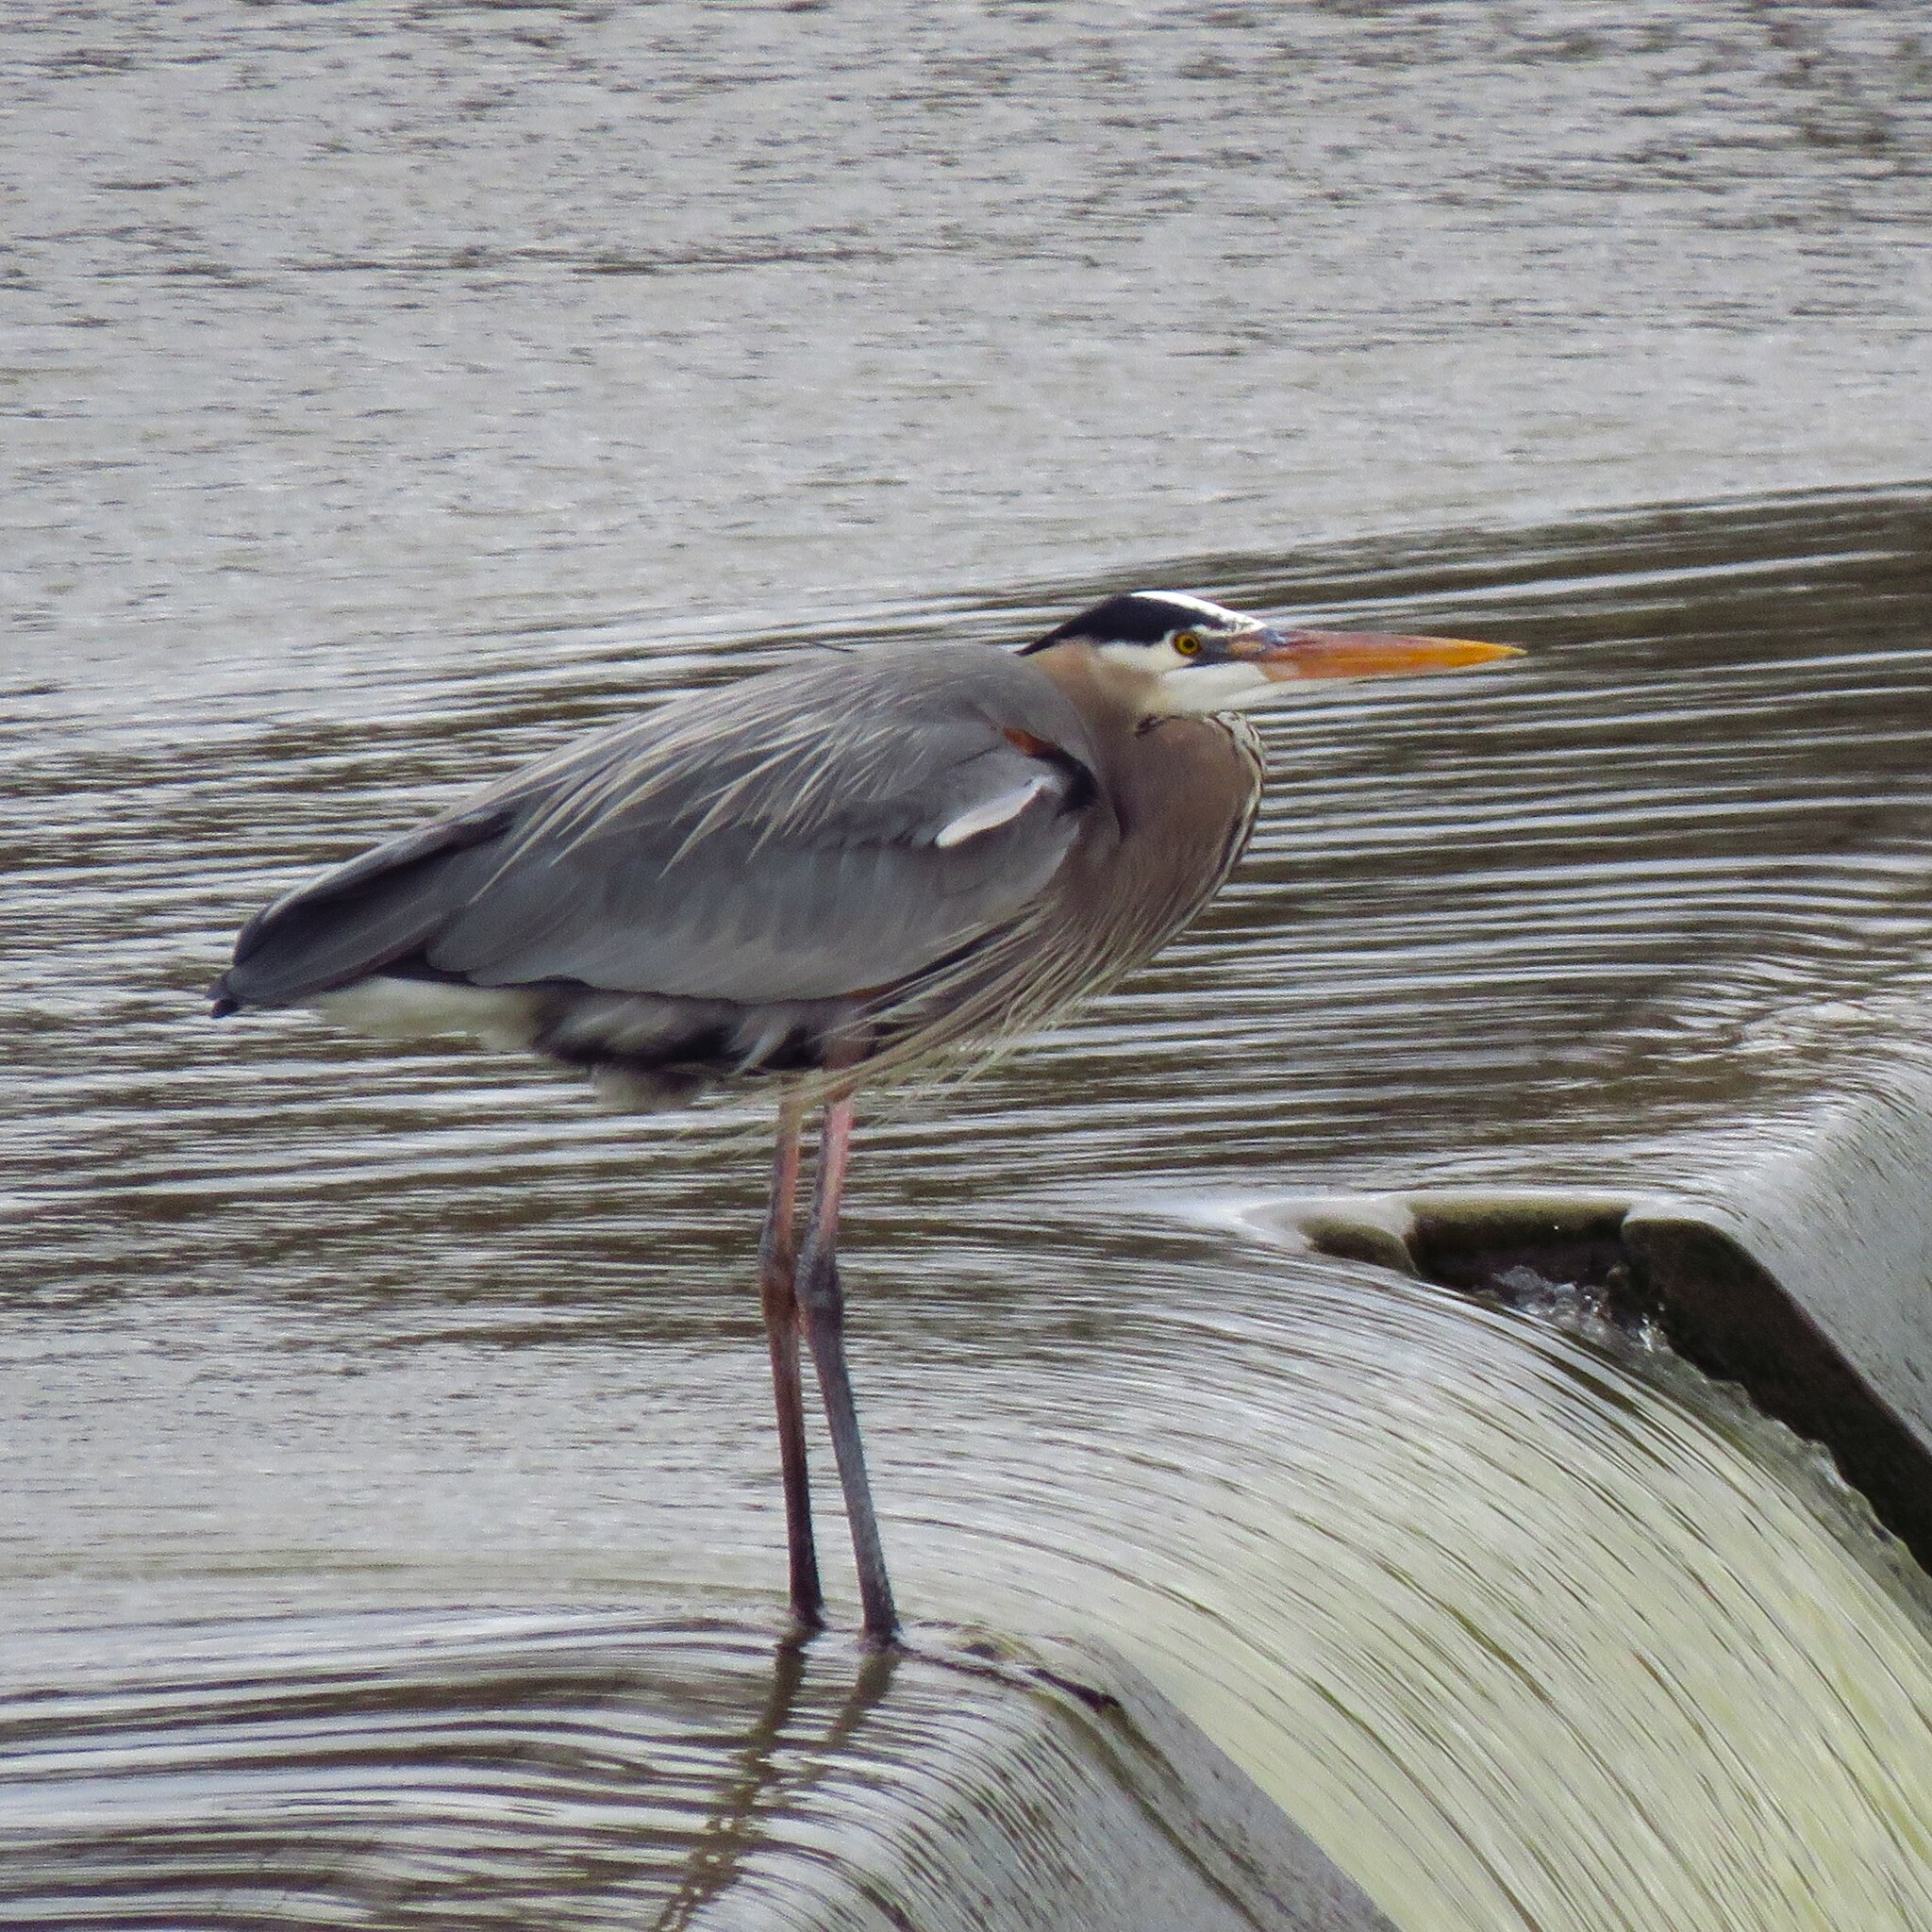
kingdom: Animalia
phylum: Chordata
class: Aves
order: Pelecaniformes
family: Ardeidae
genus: Ardea
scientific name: Ardea herodias
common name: Great blue heron
